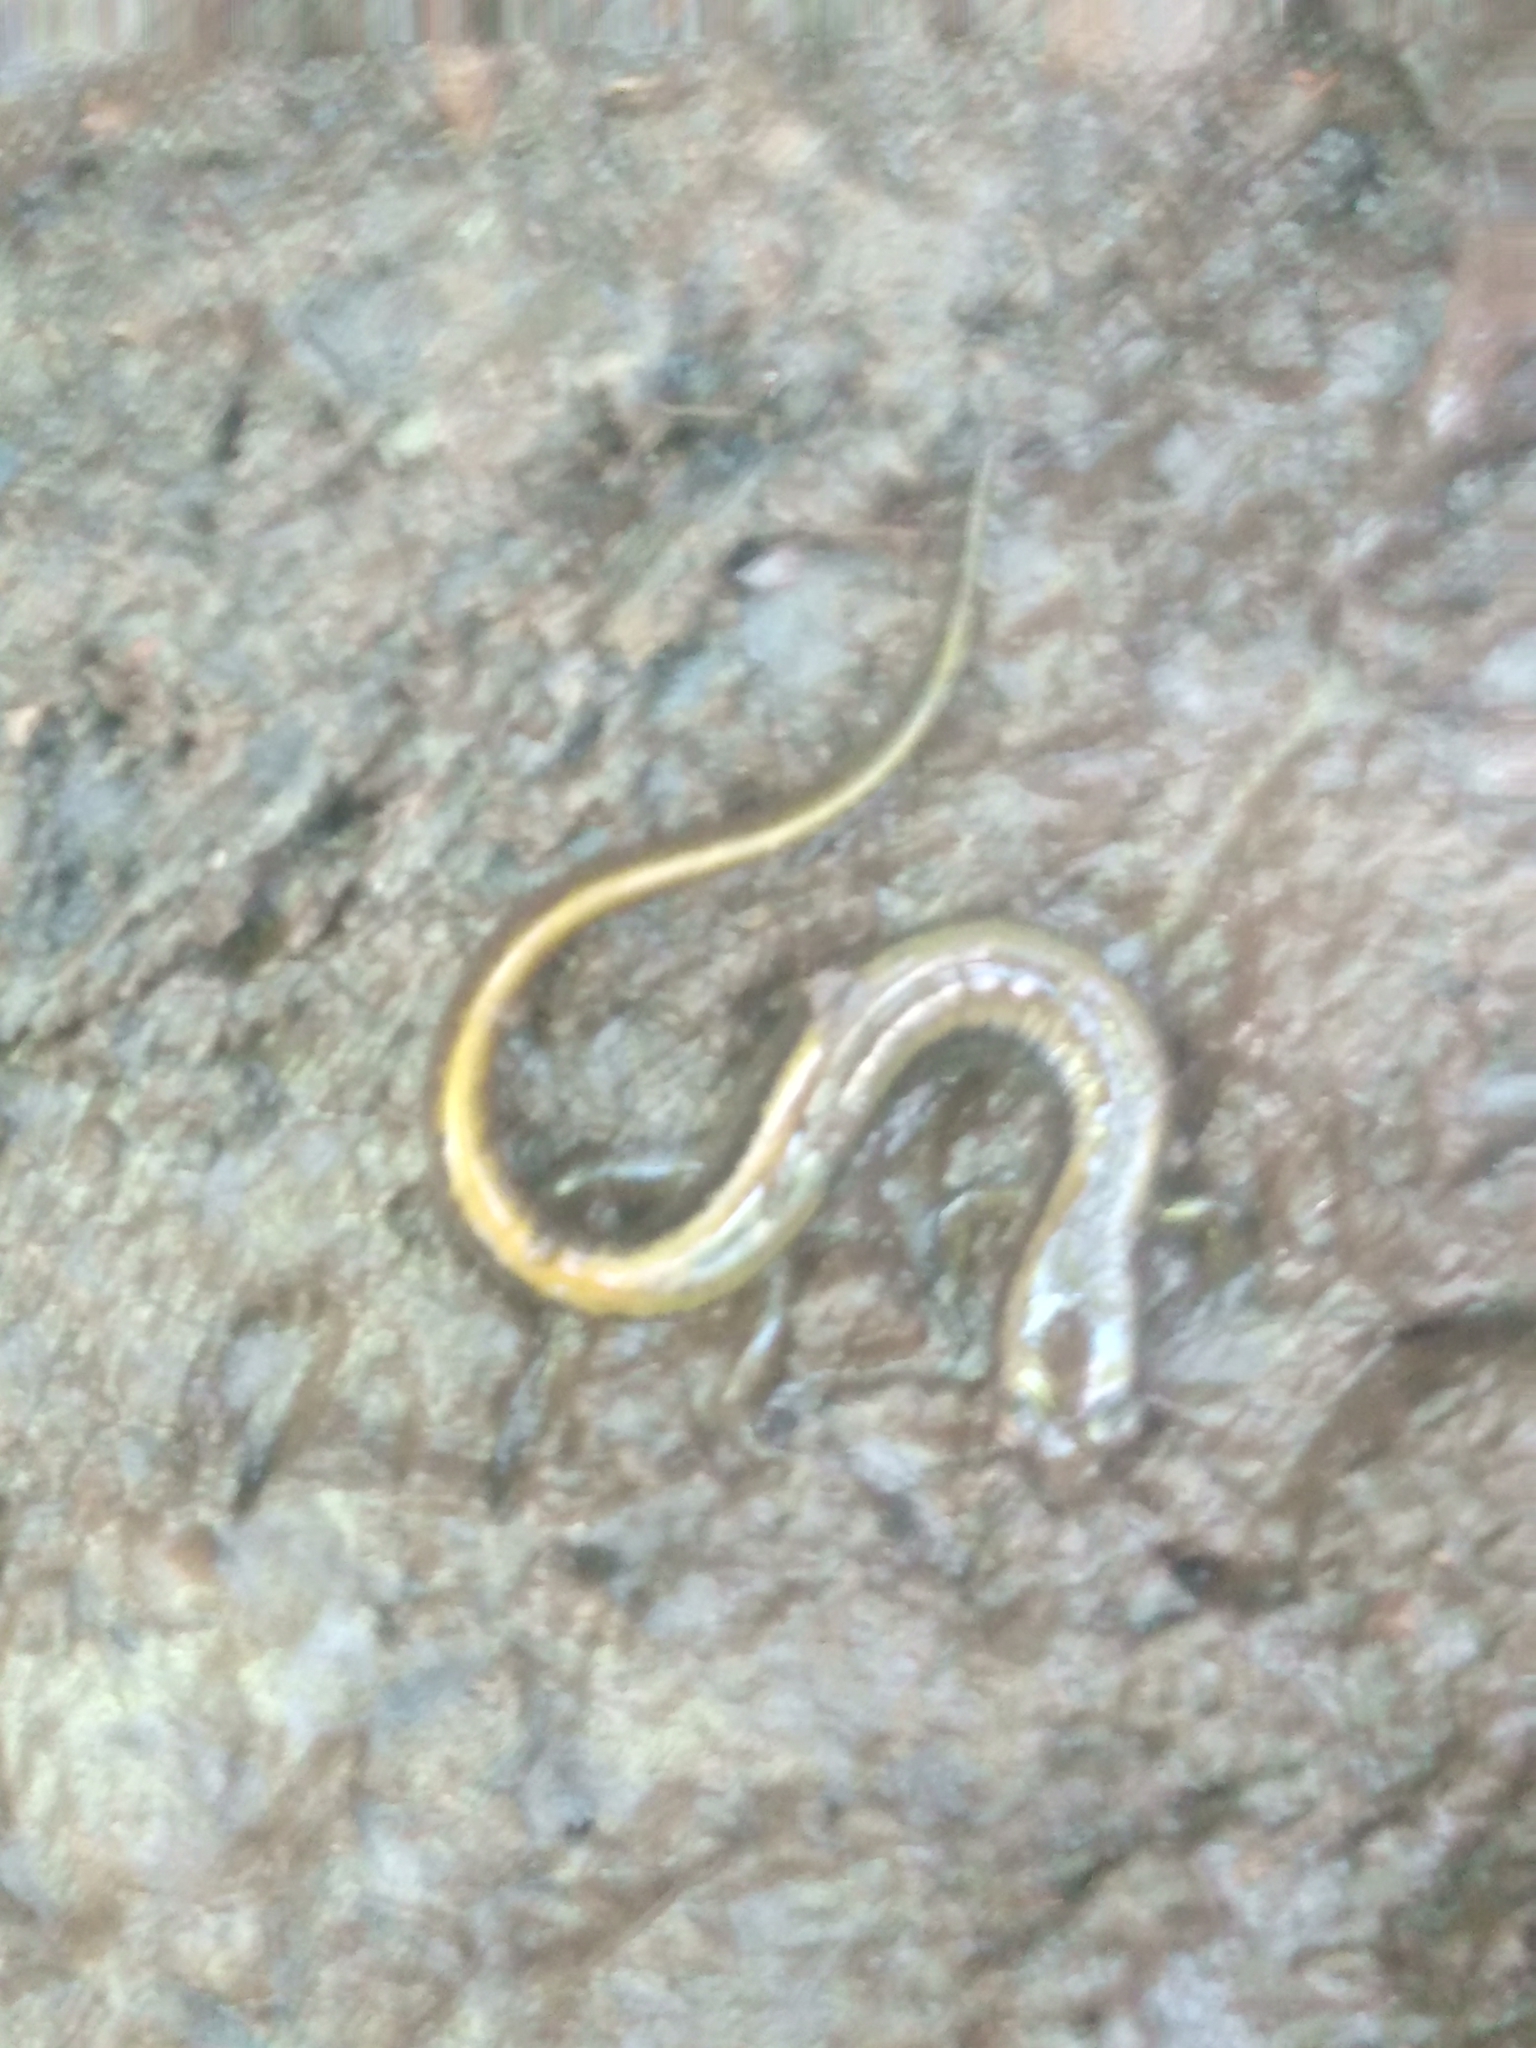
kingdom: Animalia
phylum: Chordata
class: Amphibia
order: Caudata
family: Plethodontidae
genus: Eurycea
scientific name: Eurycea bislineata
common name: Northern two-lined salamander
